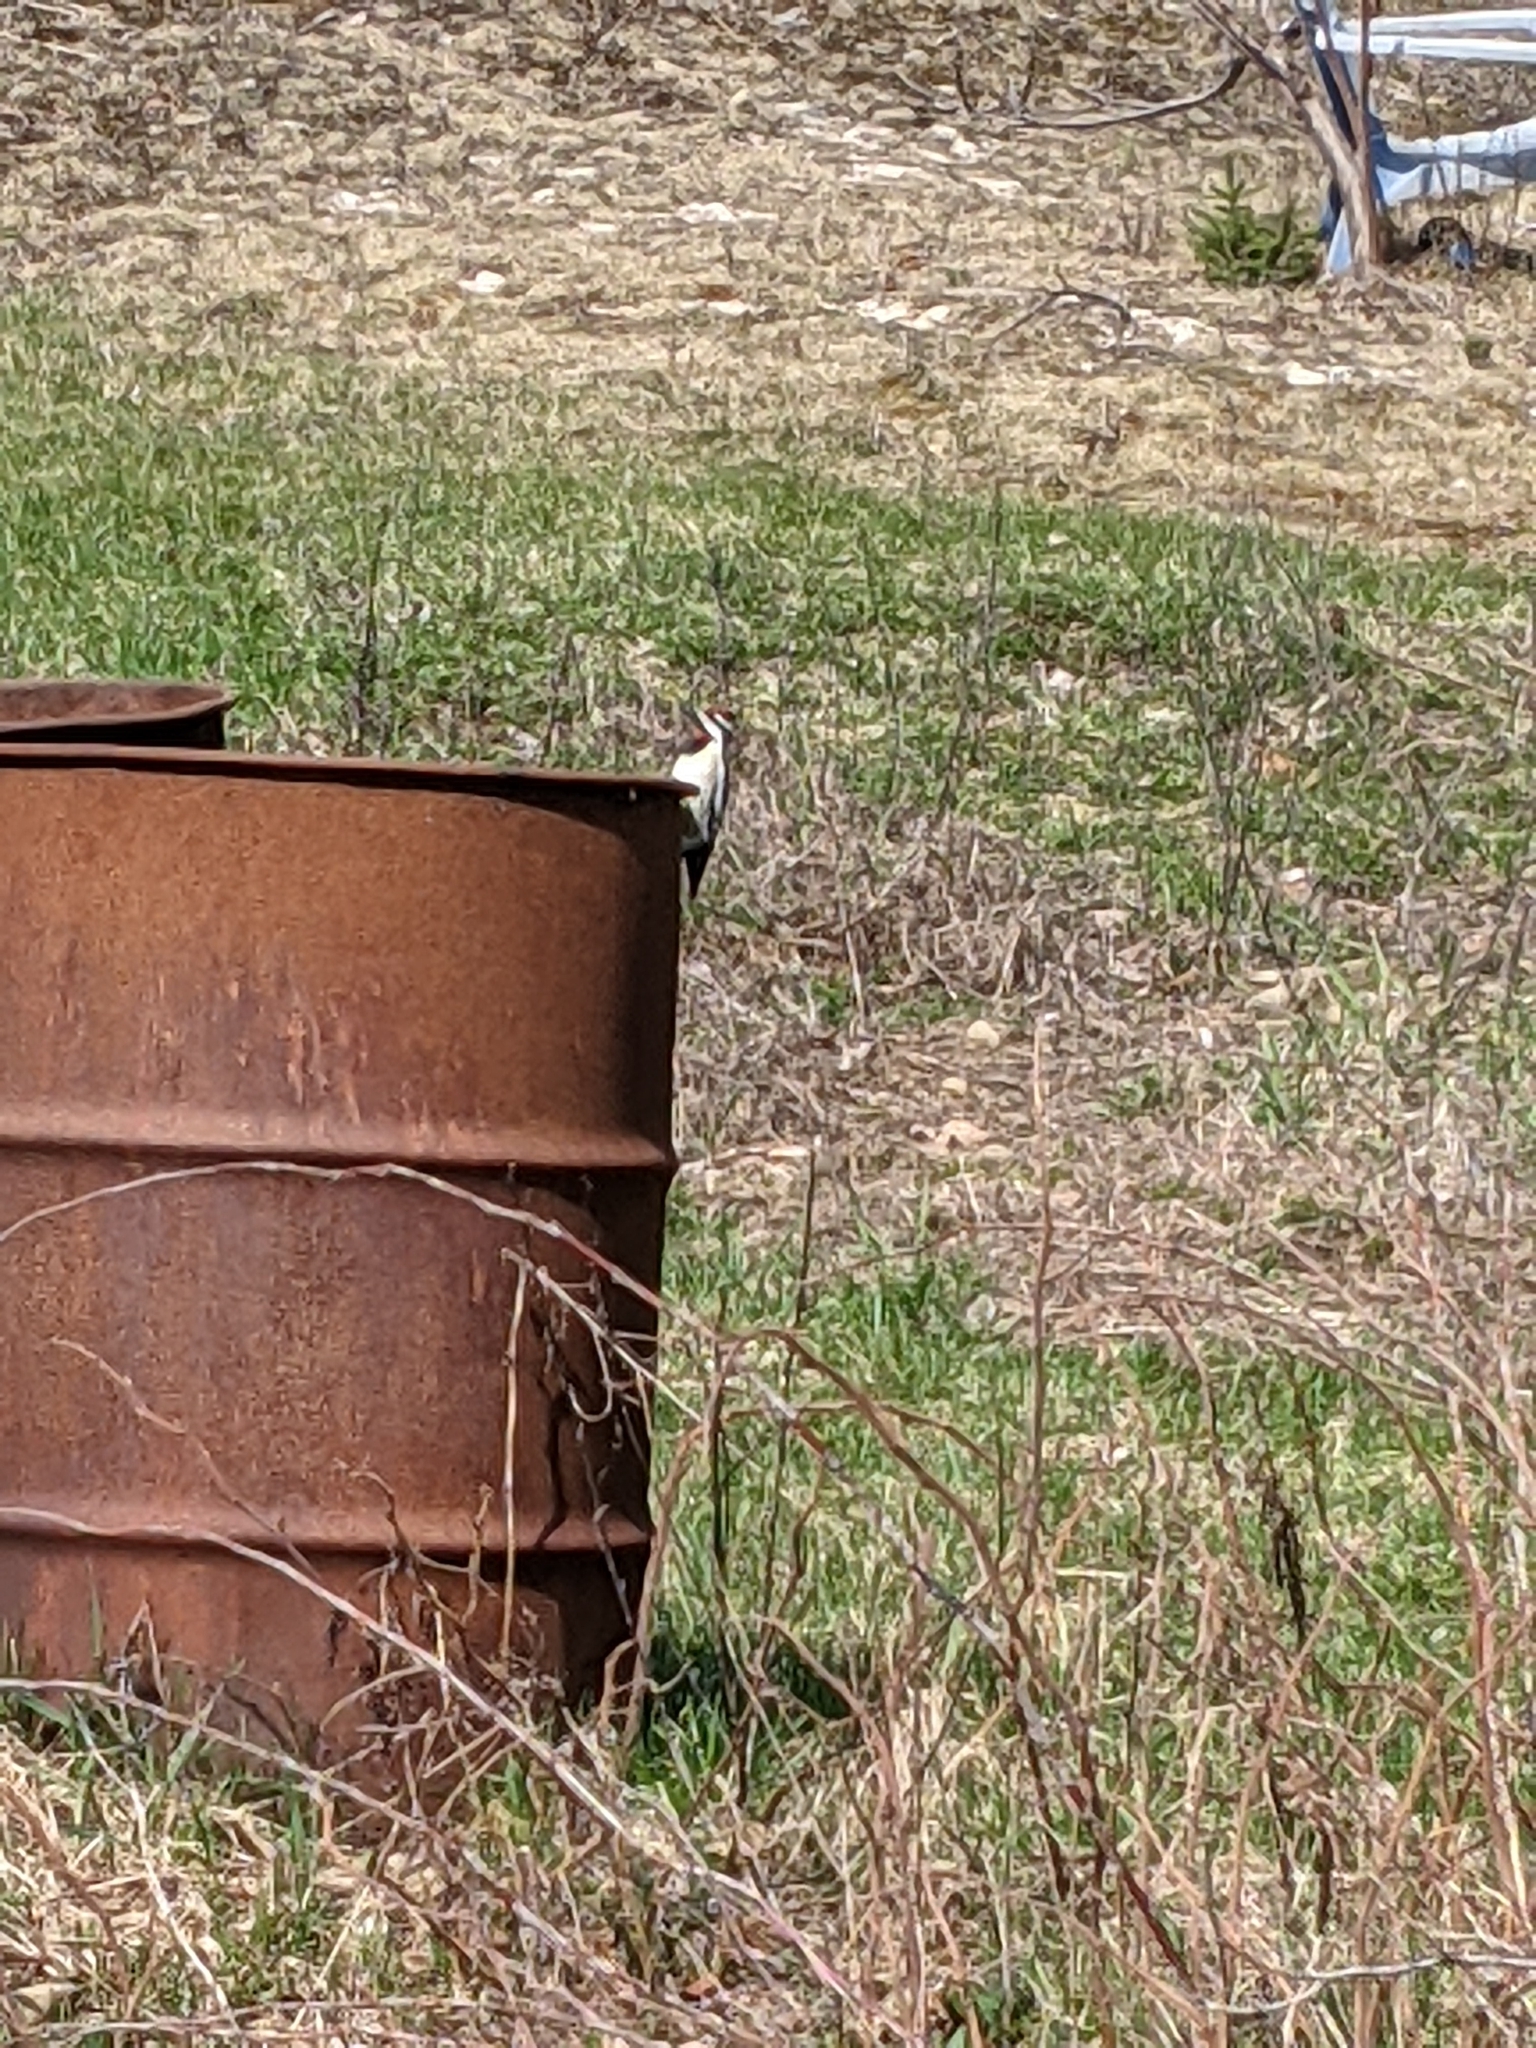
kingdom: Animalia
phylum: Chordata
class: Aves
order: Piciformes
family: Picidae
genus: Sphyrapicus
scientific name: Sphyrapicus varius
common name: Yellow-bellied sapsucker
